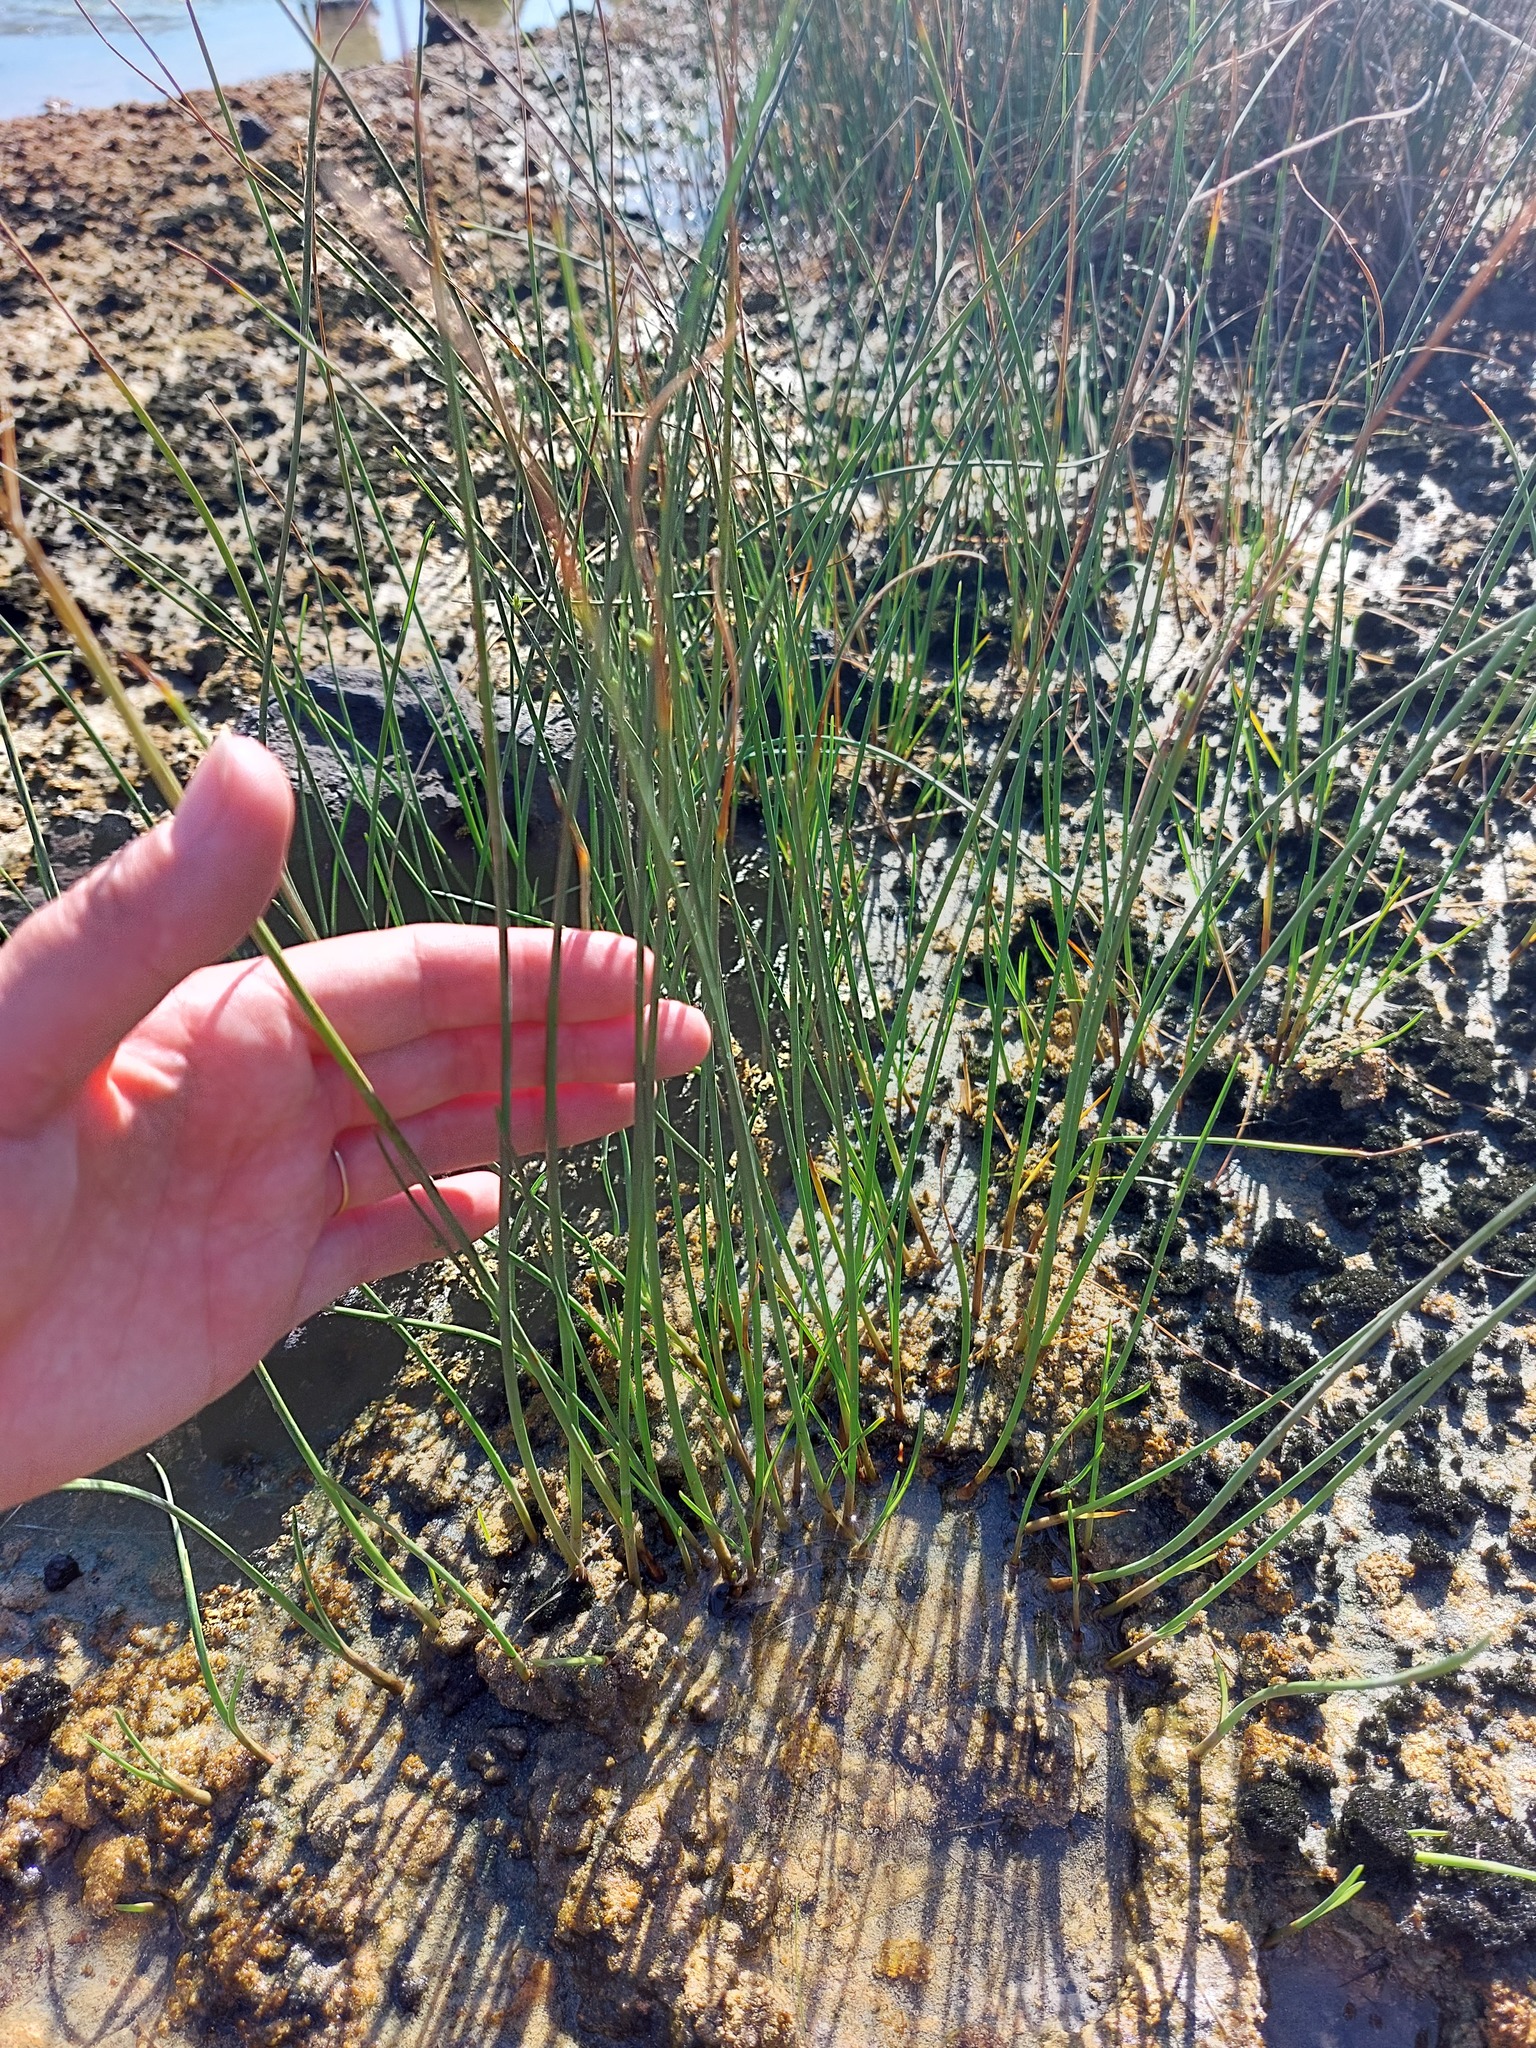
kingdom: Plantae
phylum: Tracheophyta
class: Liliopsida
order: Poales
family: Cyperaceae
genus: Cyperus
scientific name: Cyperus laevigatus
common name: Smooth flat sedge
